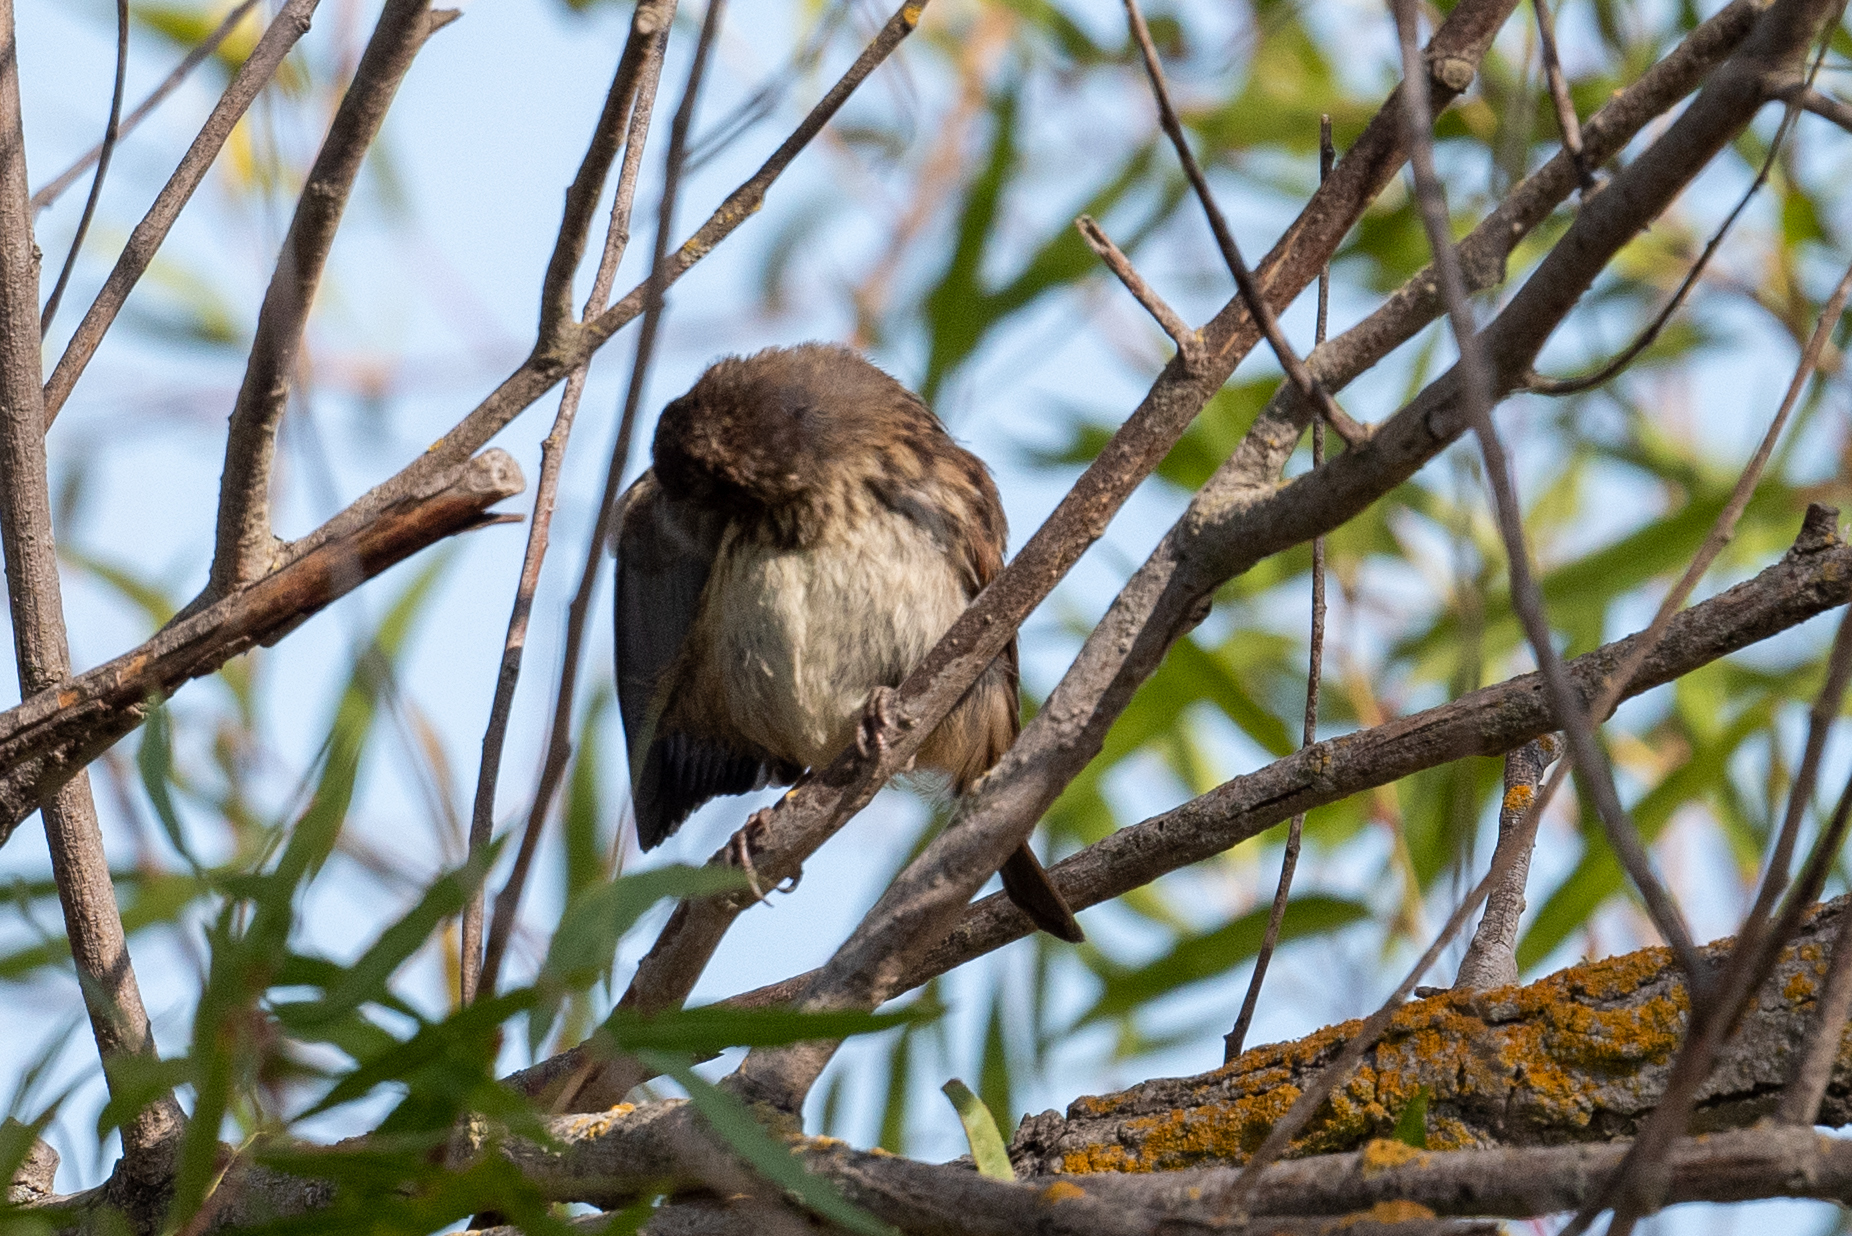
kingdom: Animalia
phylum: Chordata
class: Aves
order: Passeriformes
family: Passerellidae
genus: Melospiza
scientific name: Melospiza melodia
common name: Song sparrow
